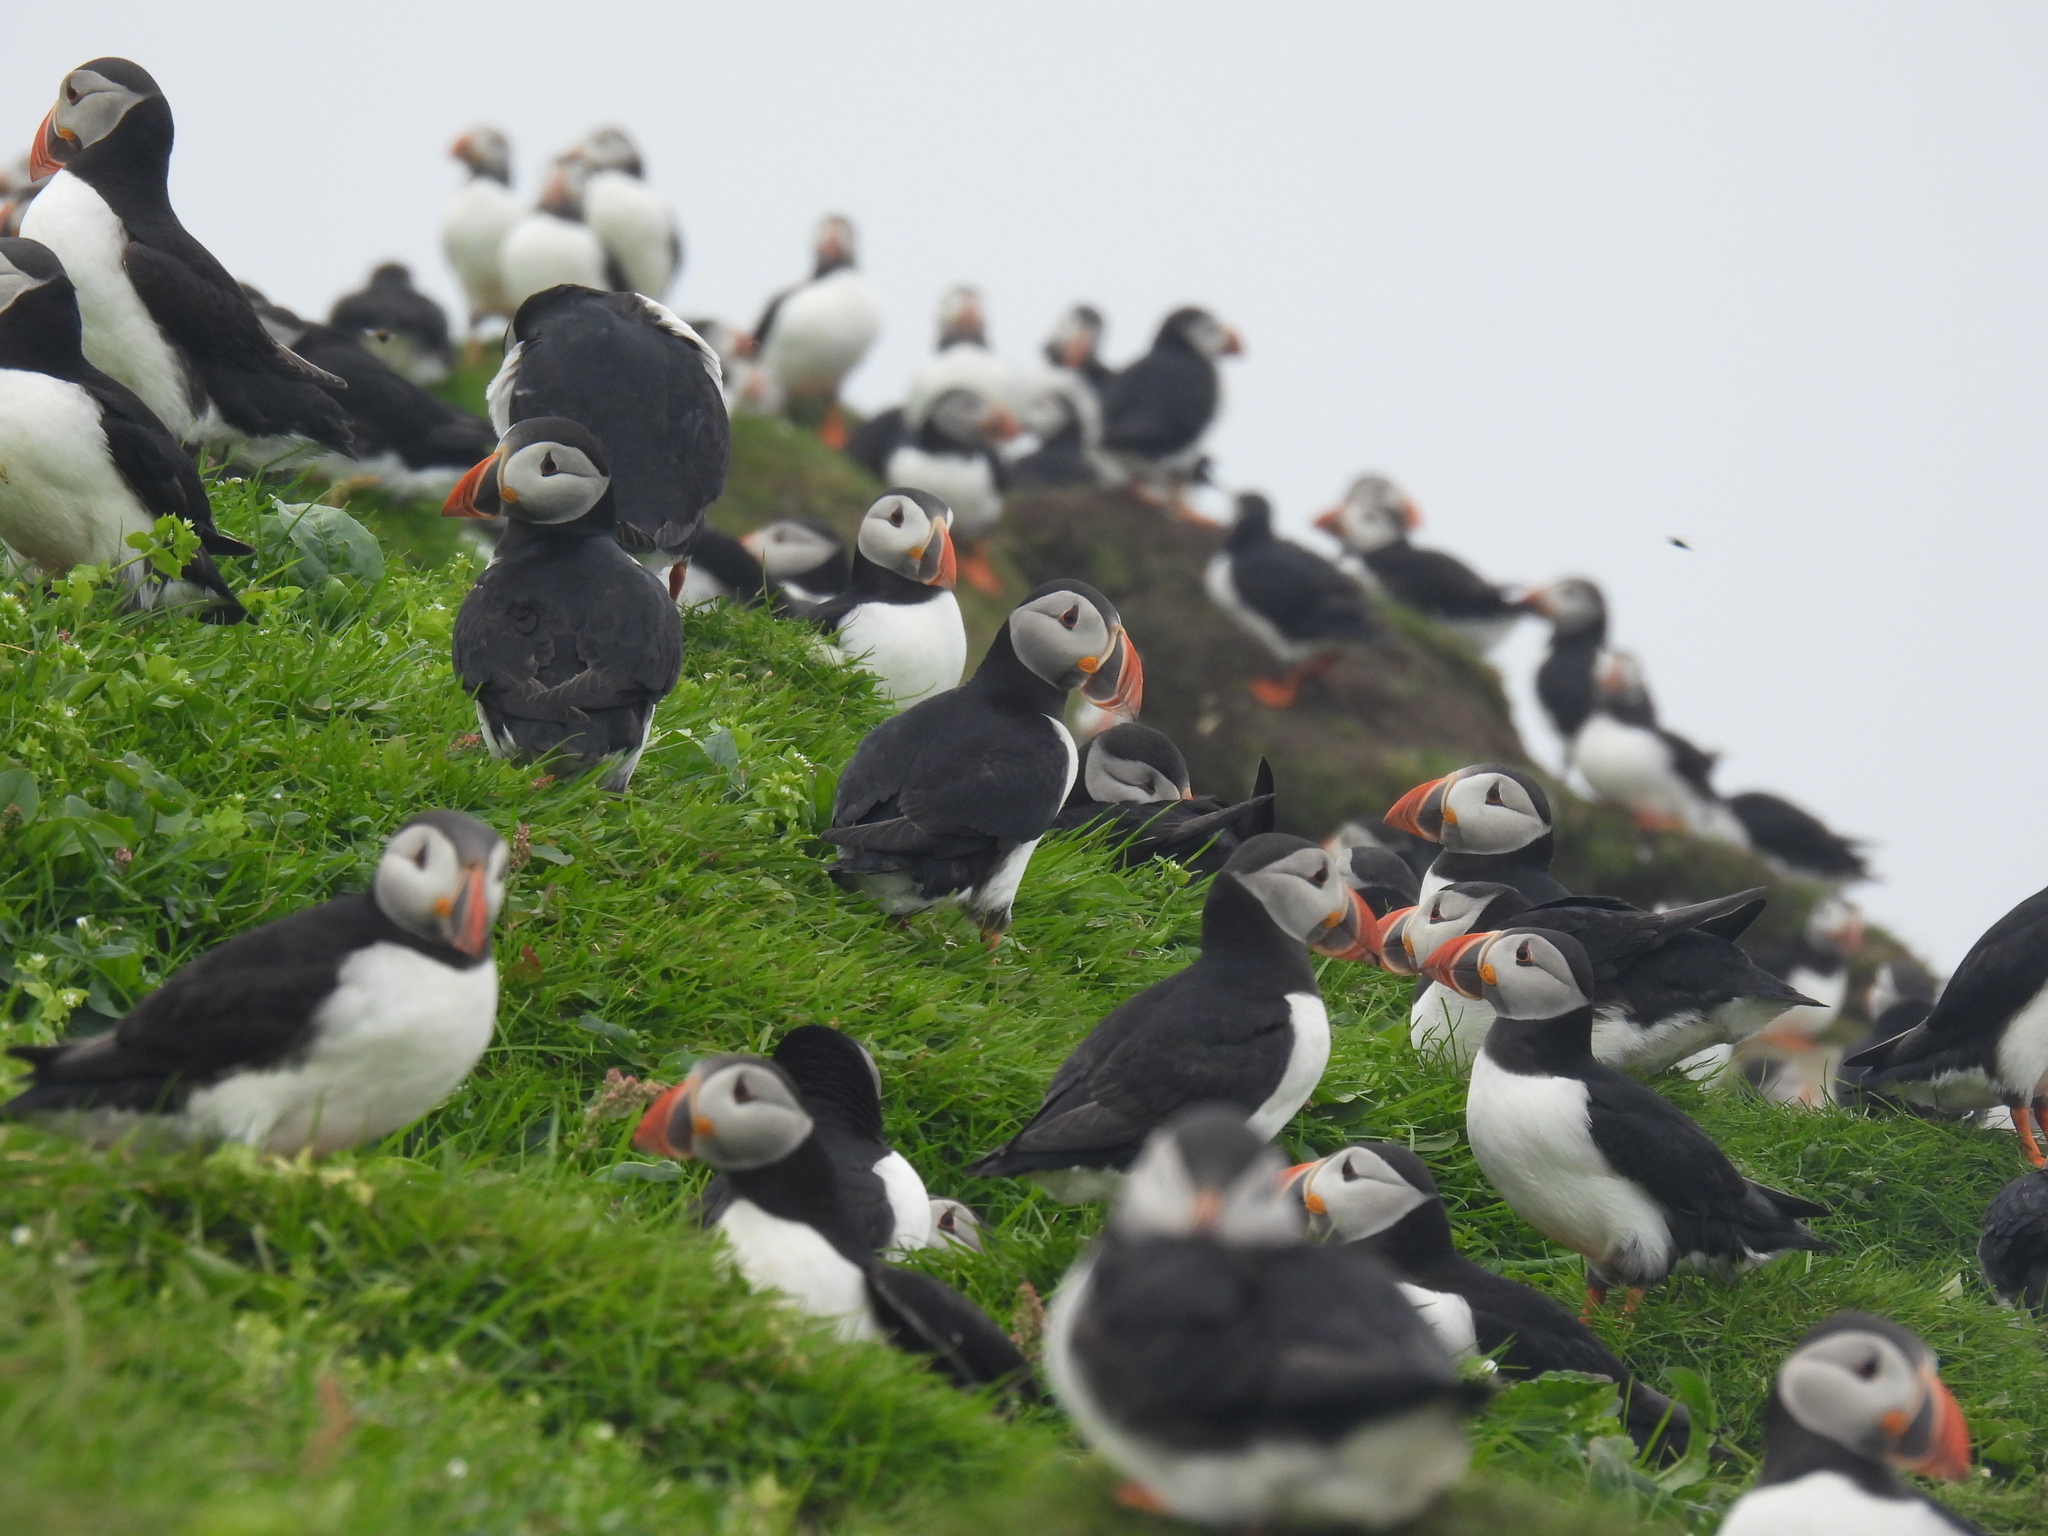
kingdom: Animalia
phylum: Chordata
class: Aves
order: Charadriiformes
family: Alcidae
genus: Fratercula
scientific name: Fratercula arctica
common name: Atlantic puffin
